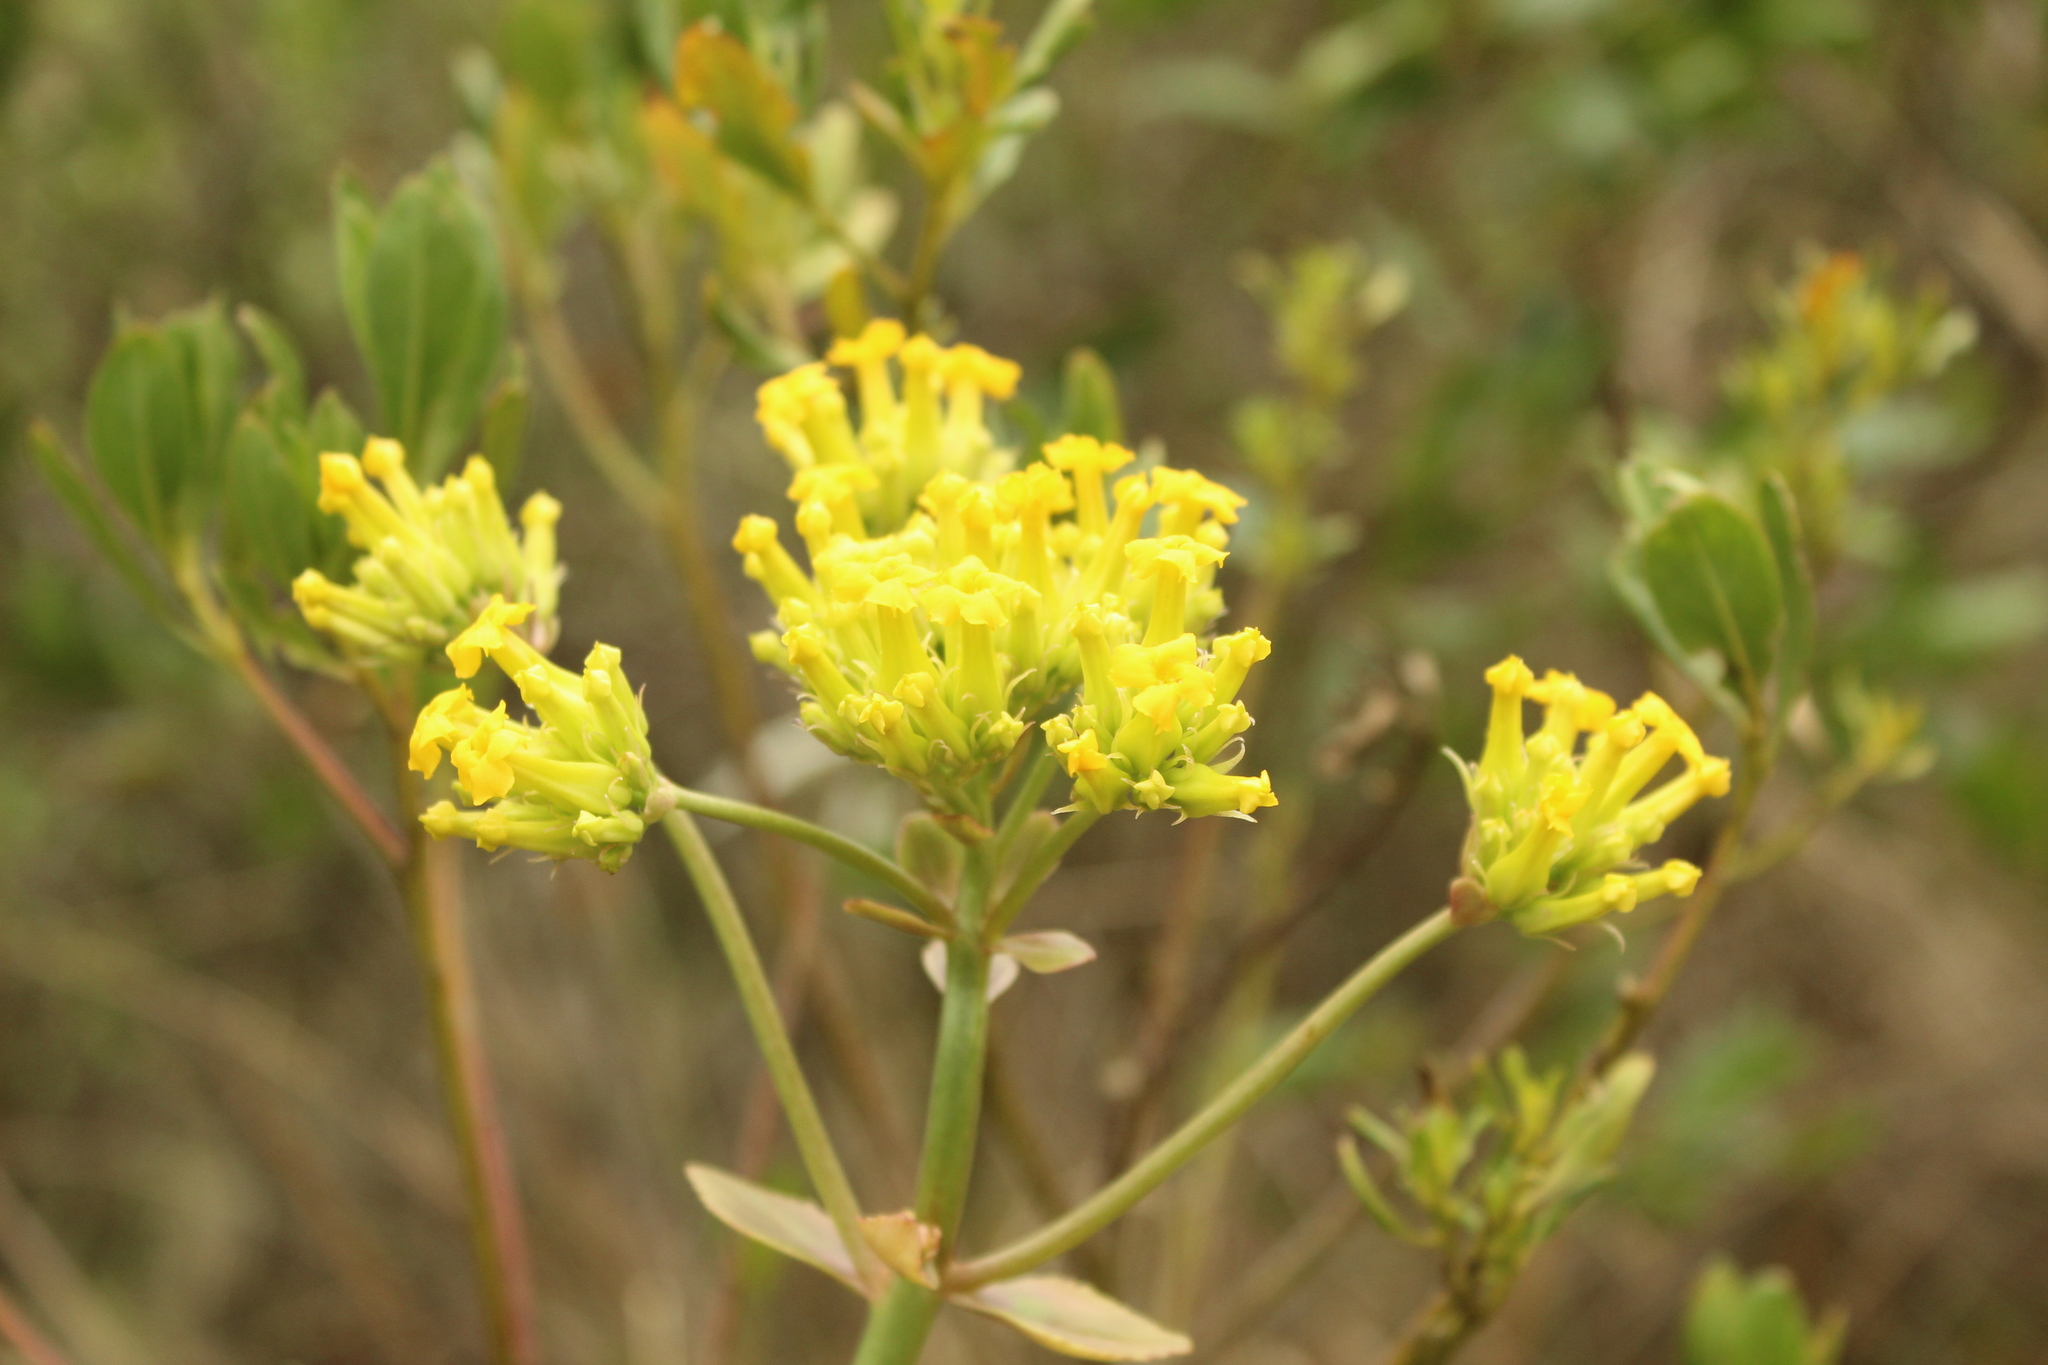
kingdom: Plantae
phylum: Tracheophyta
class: Magnoliopsida
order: Saxifragales
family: Crassulaceae
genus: Kalanchoe
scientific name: Kalanchoe densiflora
